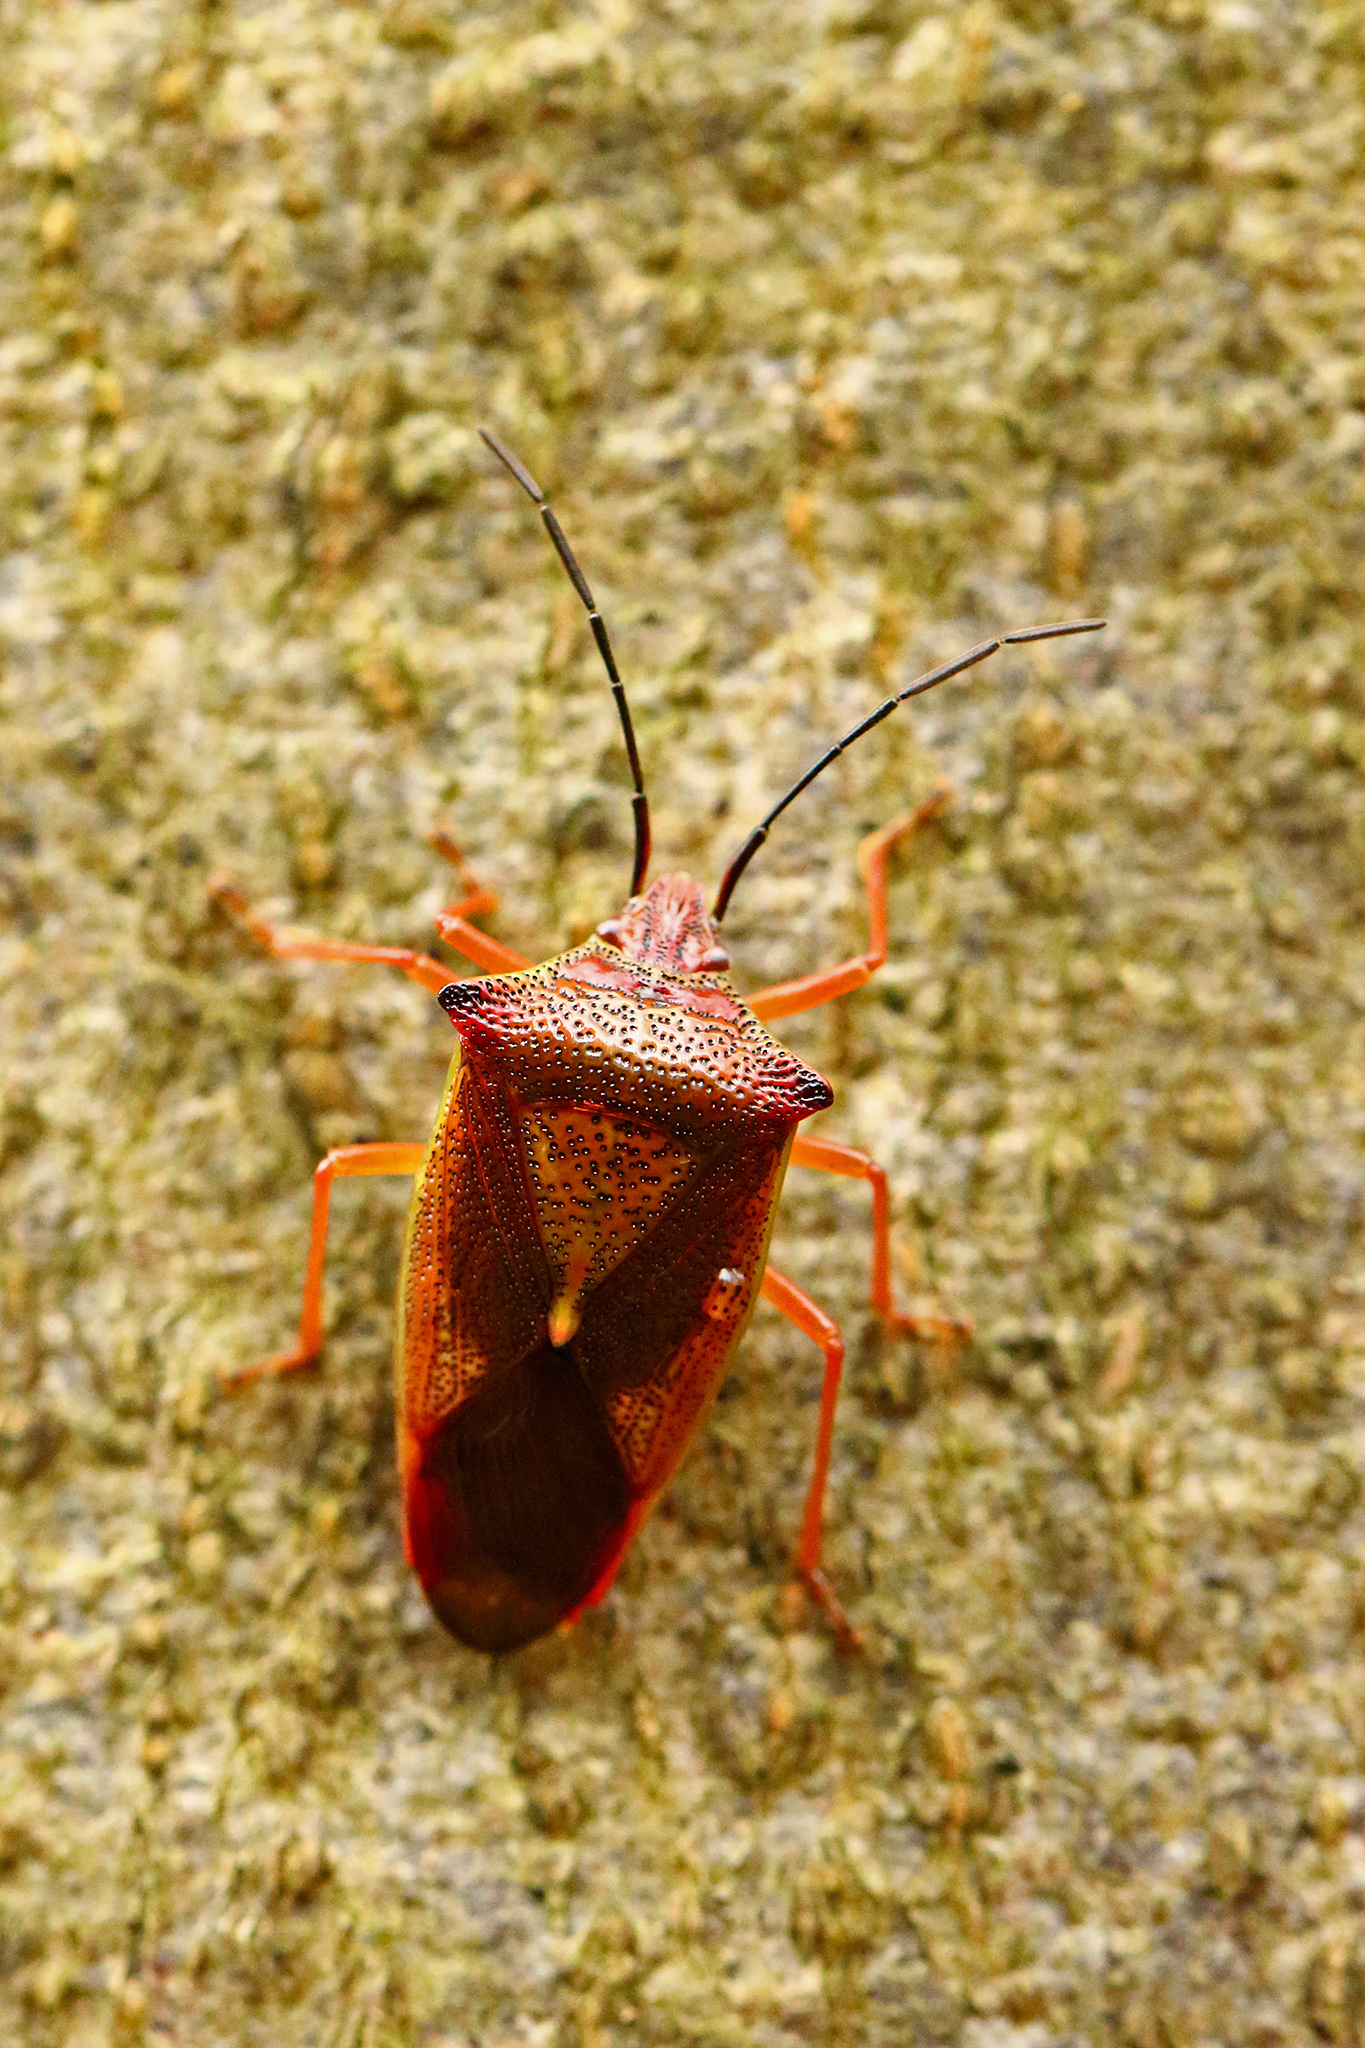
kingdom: Animalia
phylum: Arthropoda
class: Insecta
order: Hemiptera
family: Acanthosomatidae
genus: Acanthosoma
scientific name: Acanthosoma haemorrhoidale
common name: Hawthorn shieldbug
